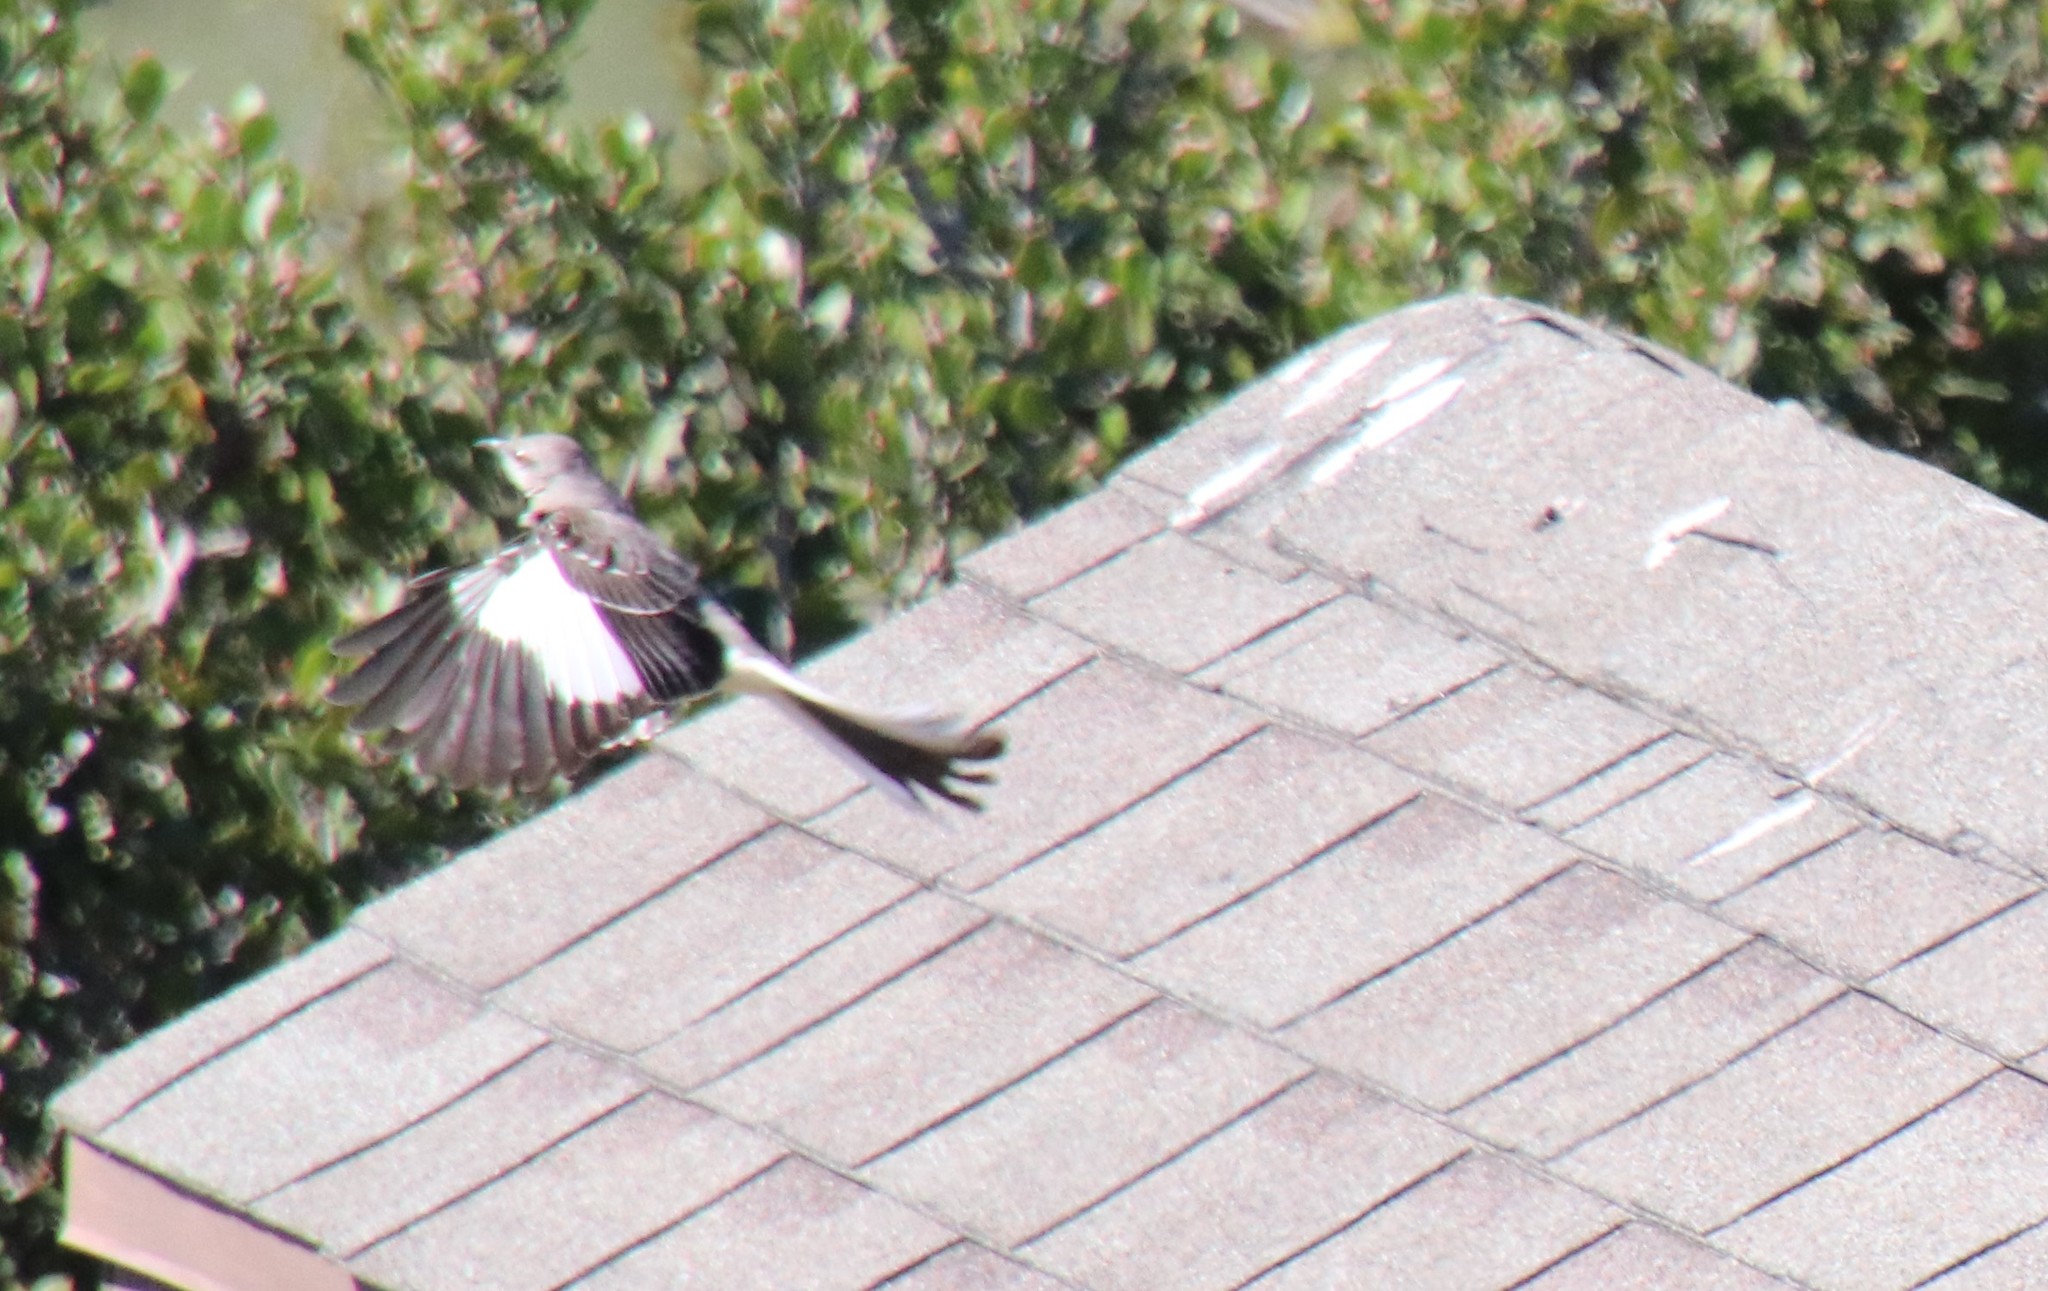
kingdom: Animalia
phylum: Chordata
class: Aves
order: Passeriformes
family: Mimidae
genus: Mimus
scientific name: Mimus polyglottos
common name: Northern mockingbird
